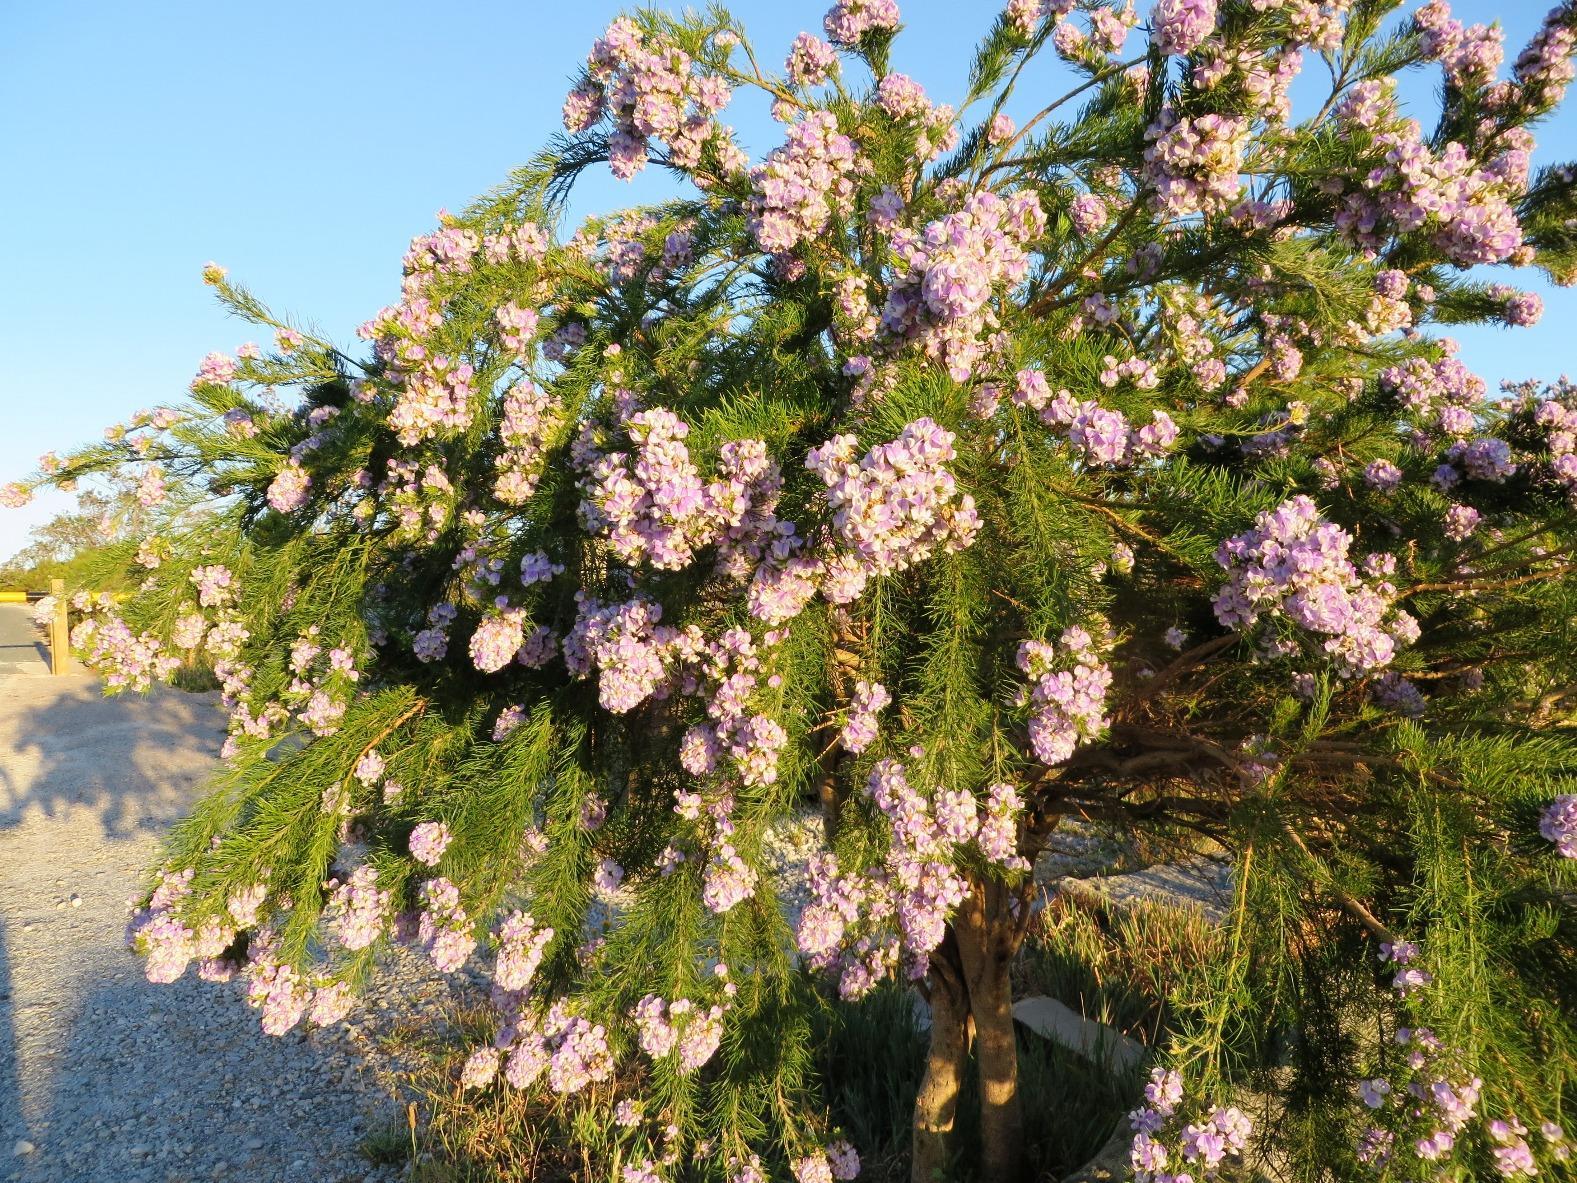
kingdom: Plantae
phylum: Tracheophyta
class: Magnoliopsida
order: Fabales
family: Fabaceae
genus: Psoralea
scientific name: Psoralea affinis
